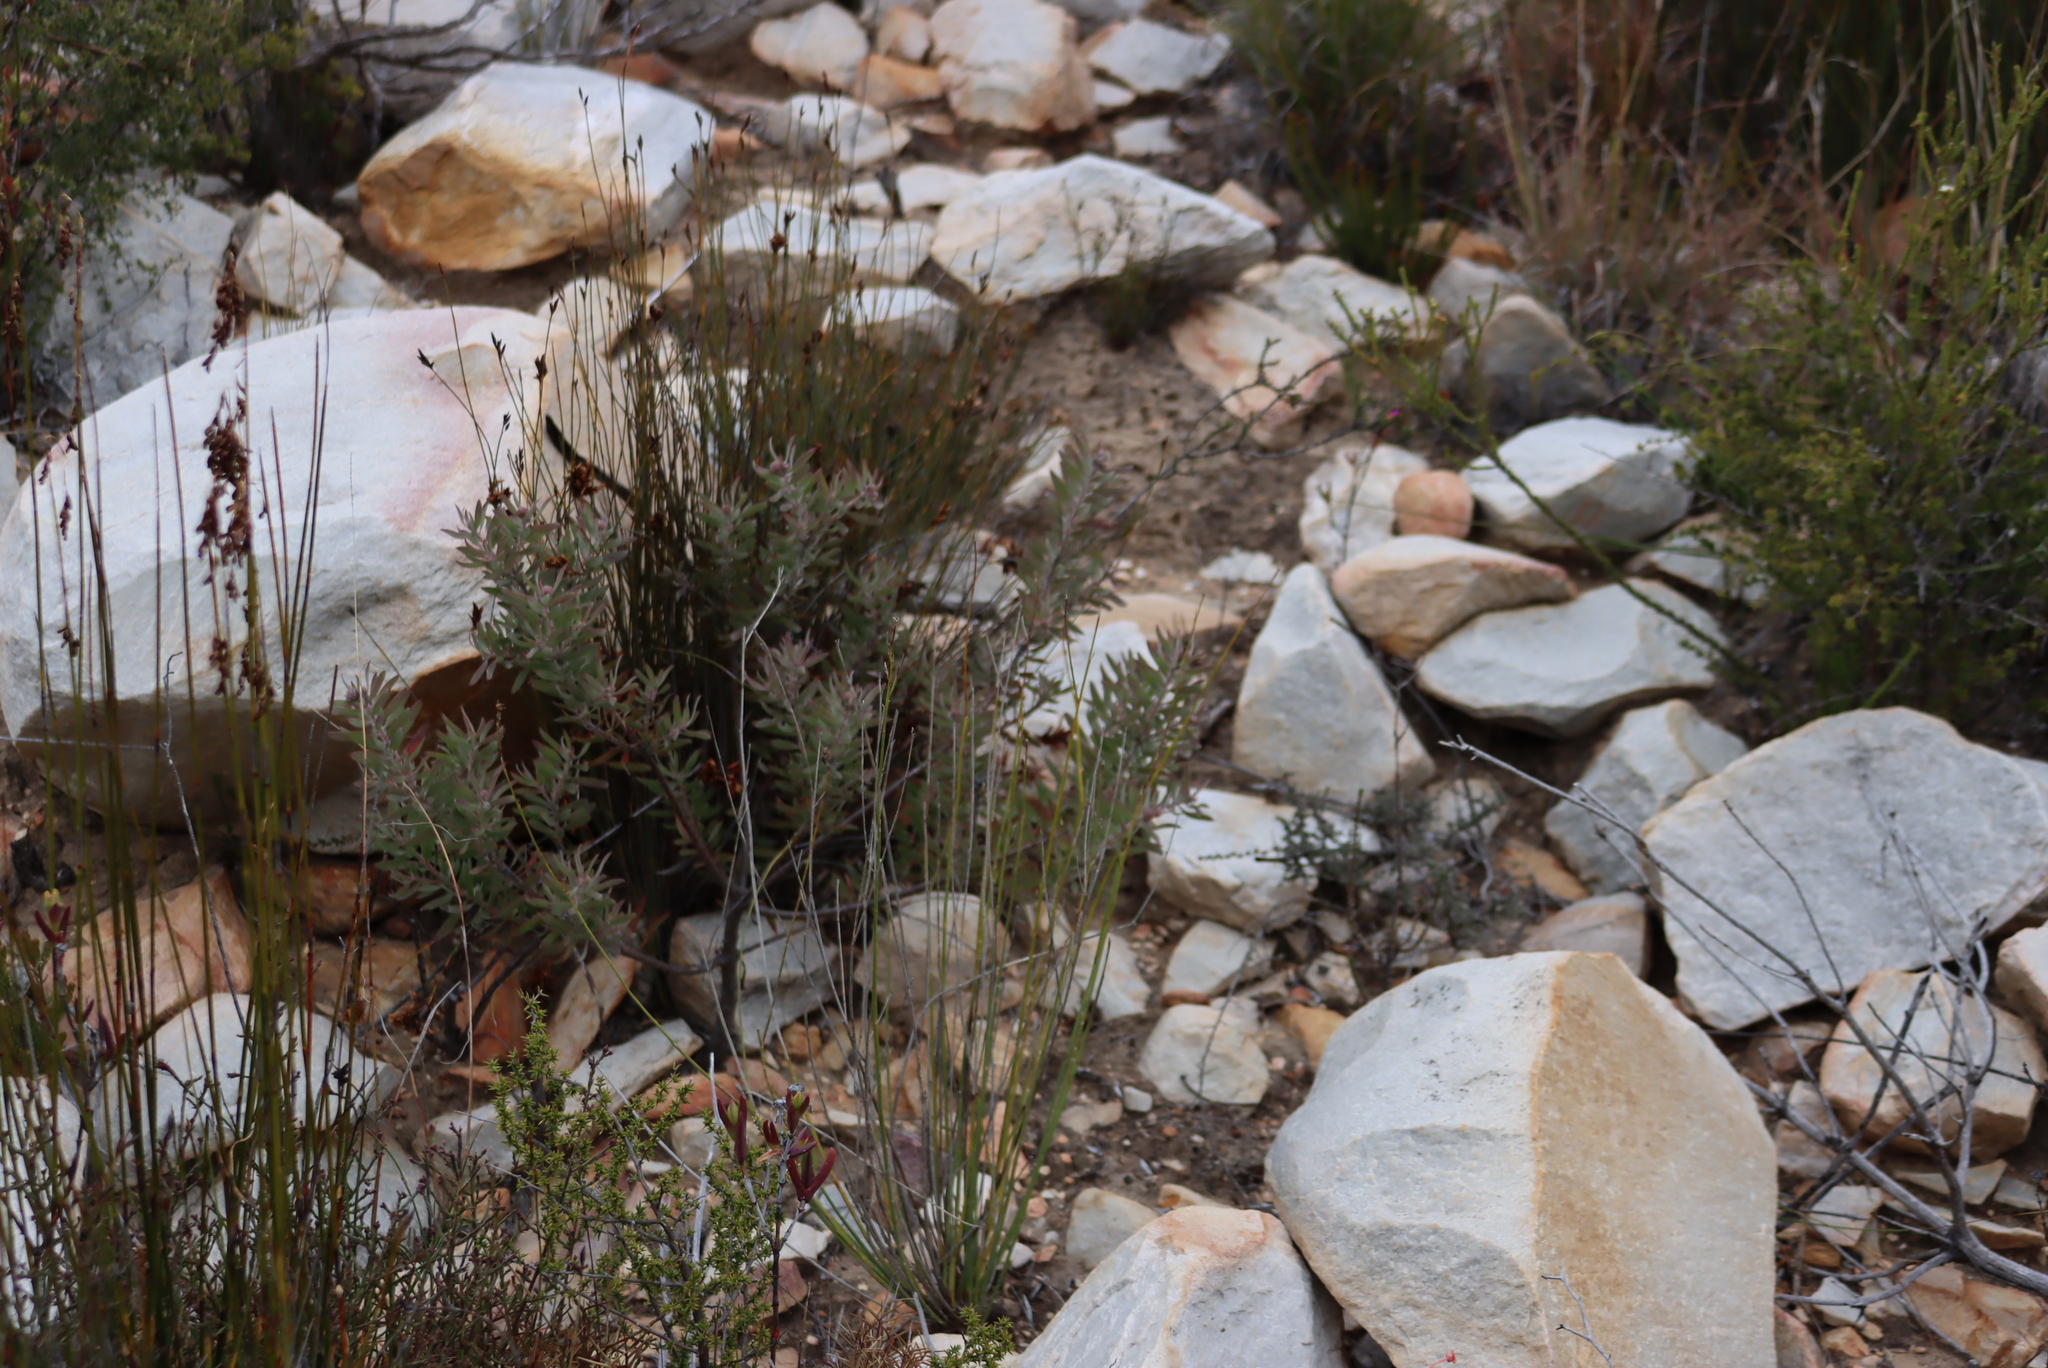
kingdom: Plantae
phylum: Tracheophyta
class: Magnoliopsida
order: Proteales
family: Proteaceae
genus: Leucospermum
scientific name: Leucospermum wittebergense
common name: Swartberg pincushion
